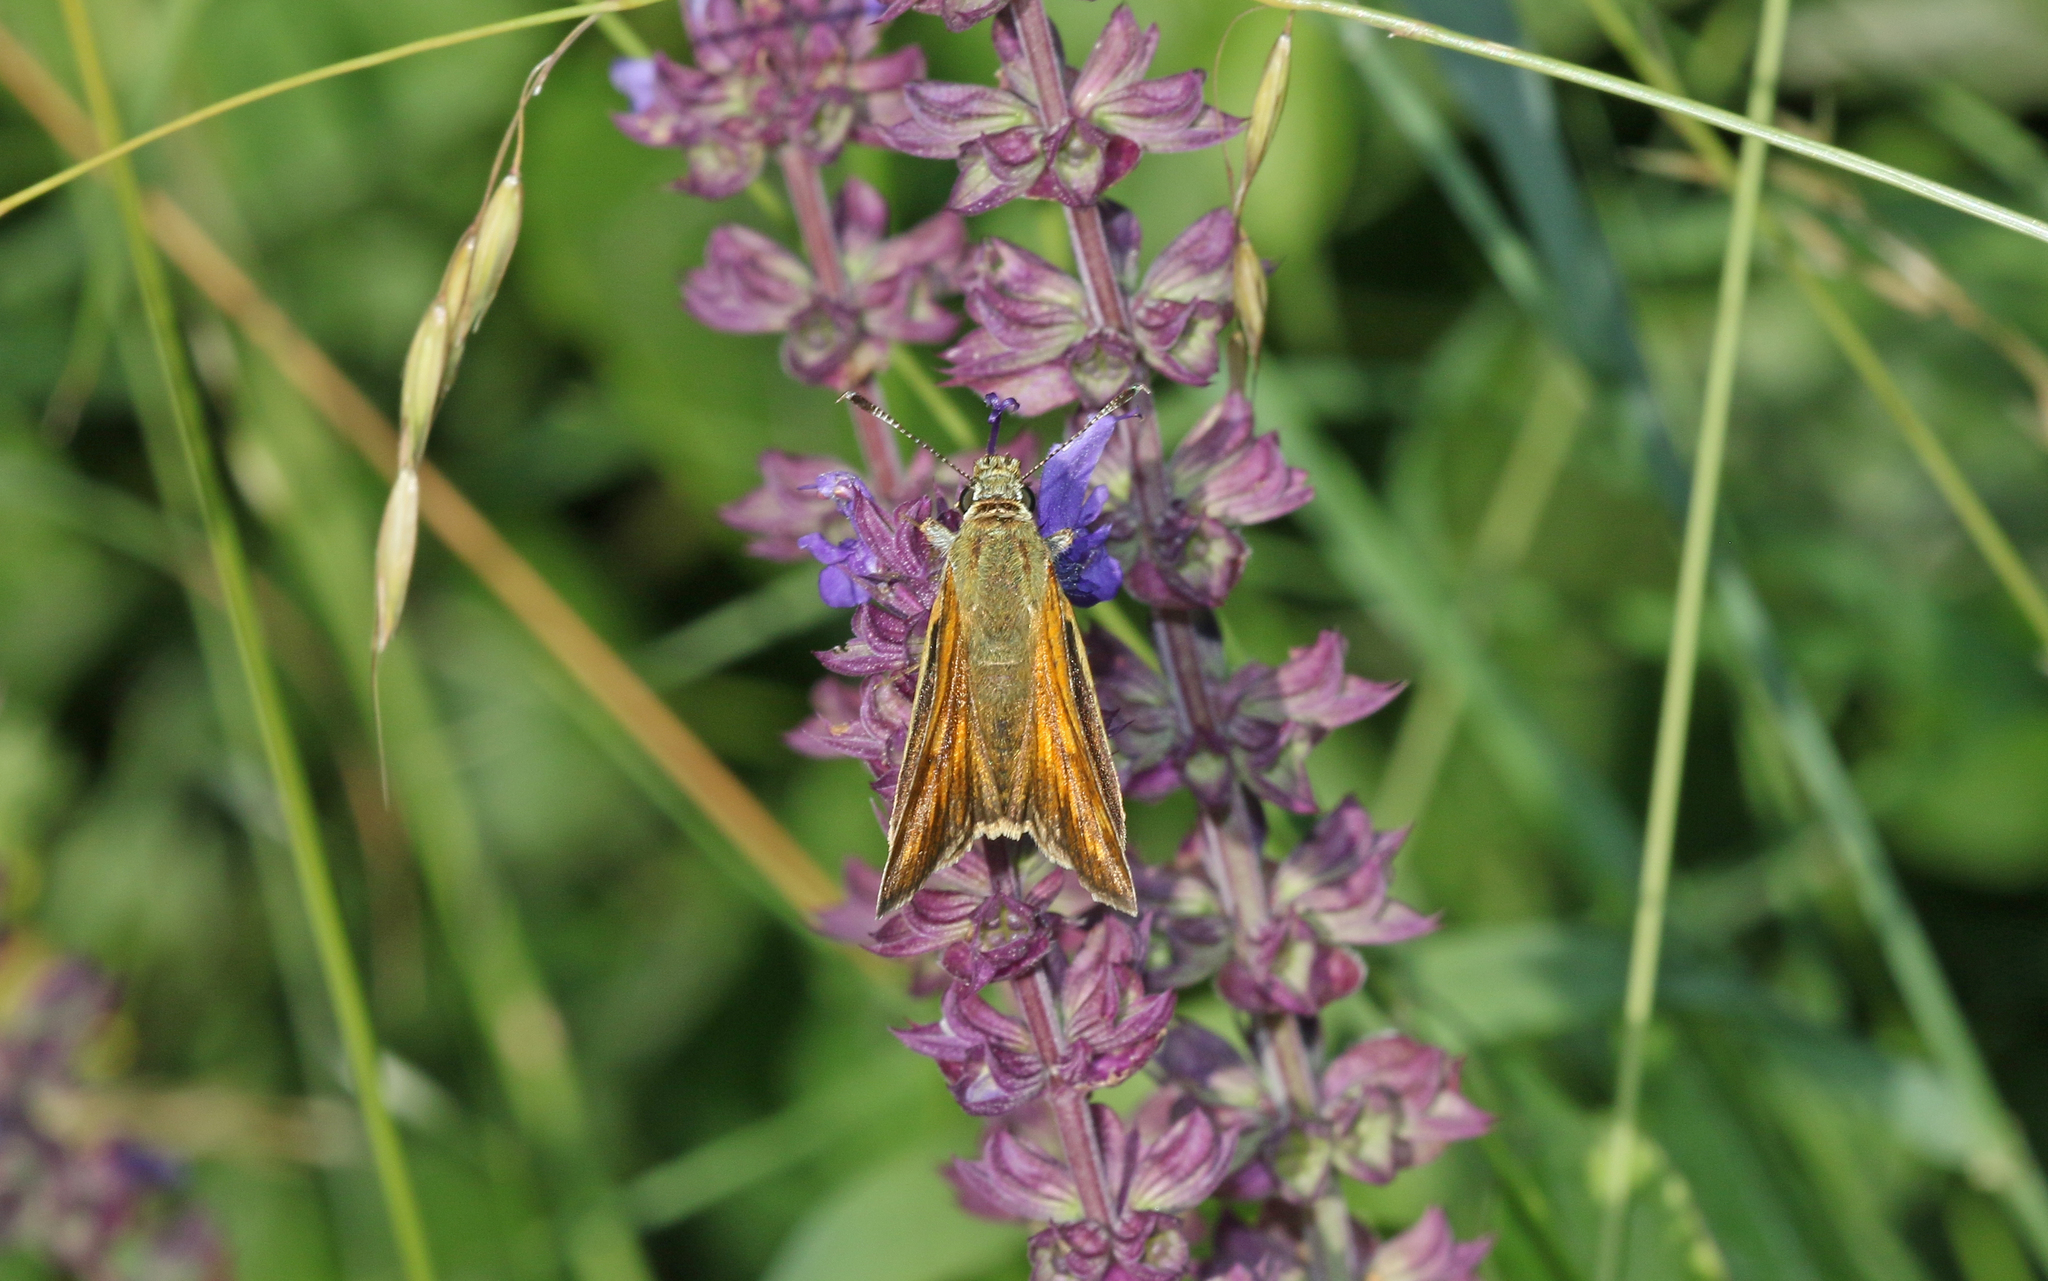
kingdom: Animalia
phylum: Arthropoda
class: Insecta
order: Lepidoptera
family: Hesperiidae
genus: Ochlodes
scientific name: Ochlodes venata
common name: Large skipper
